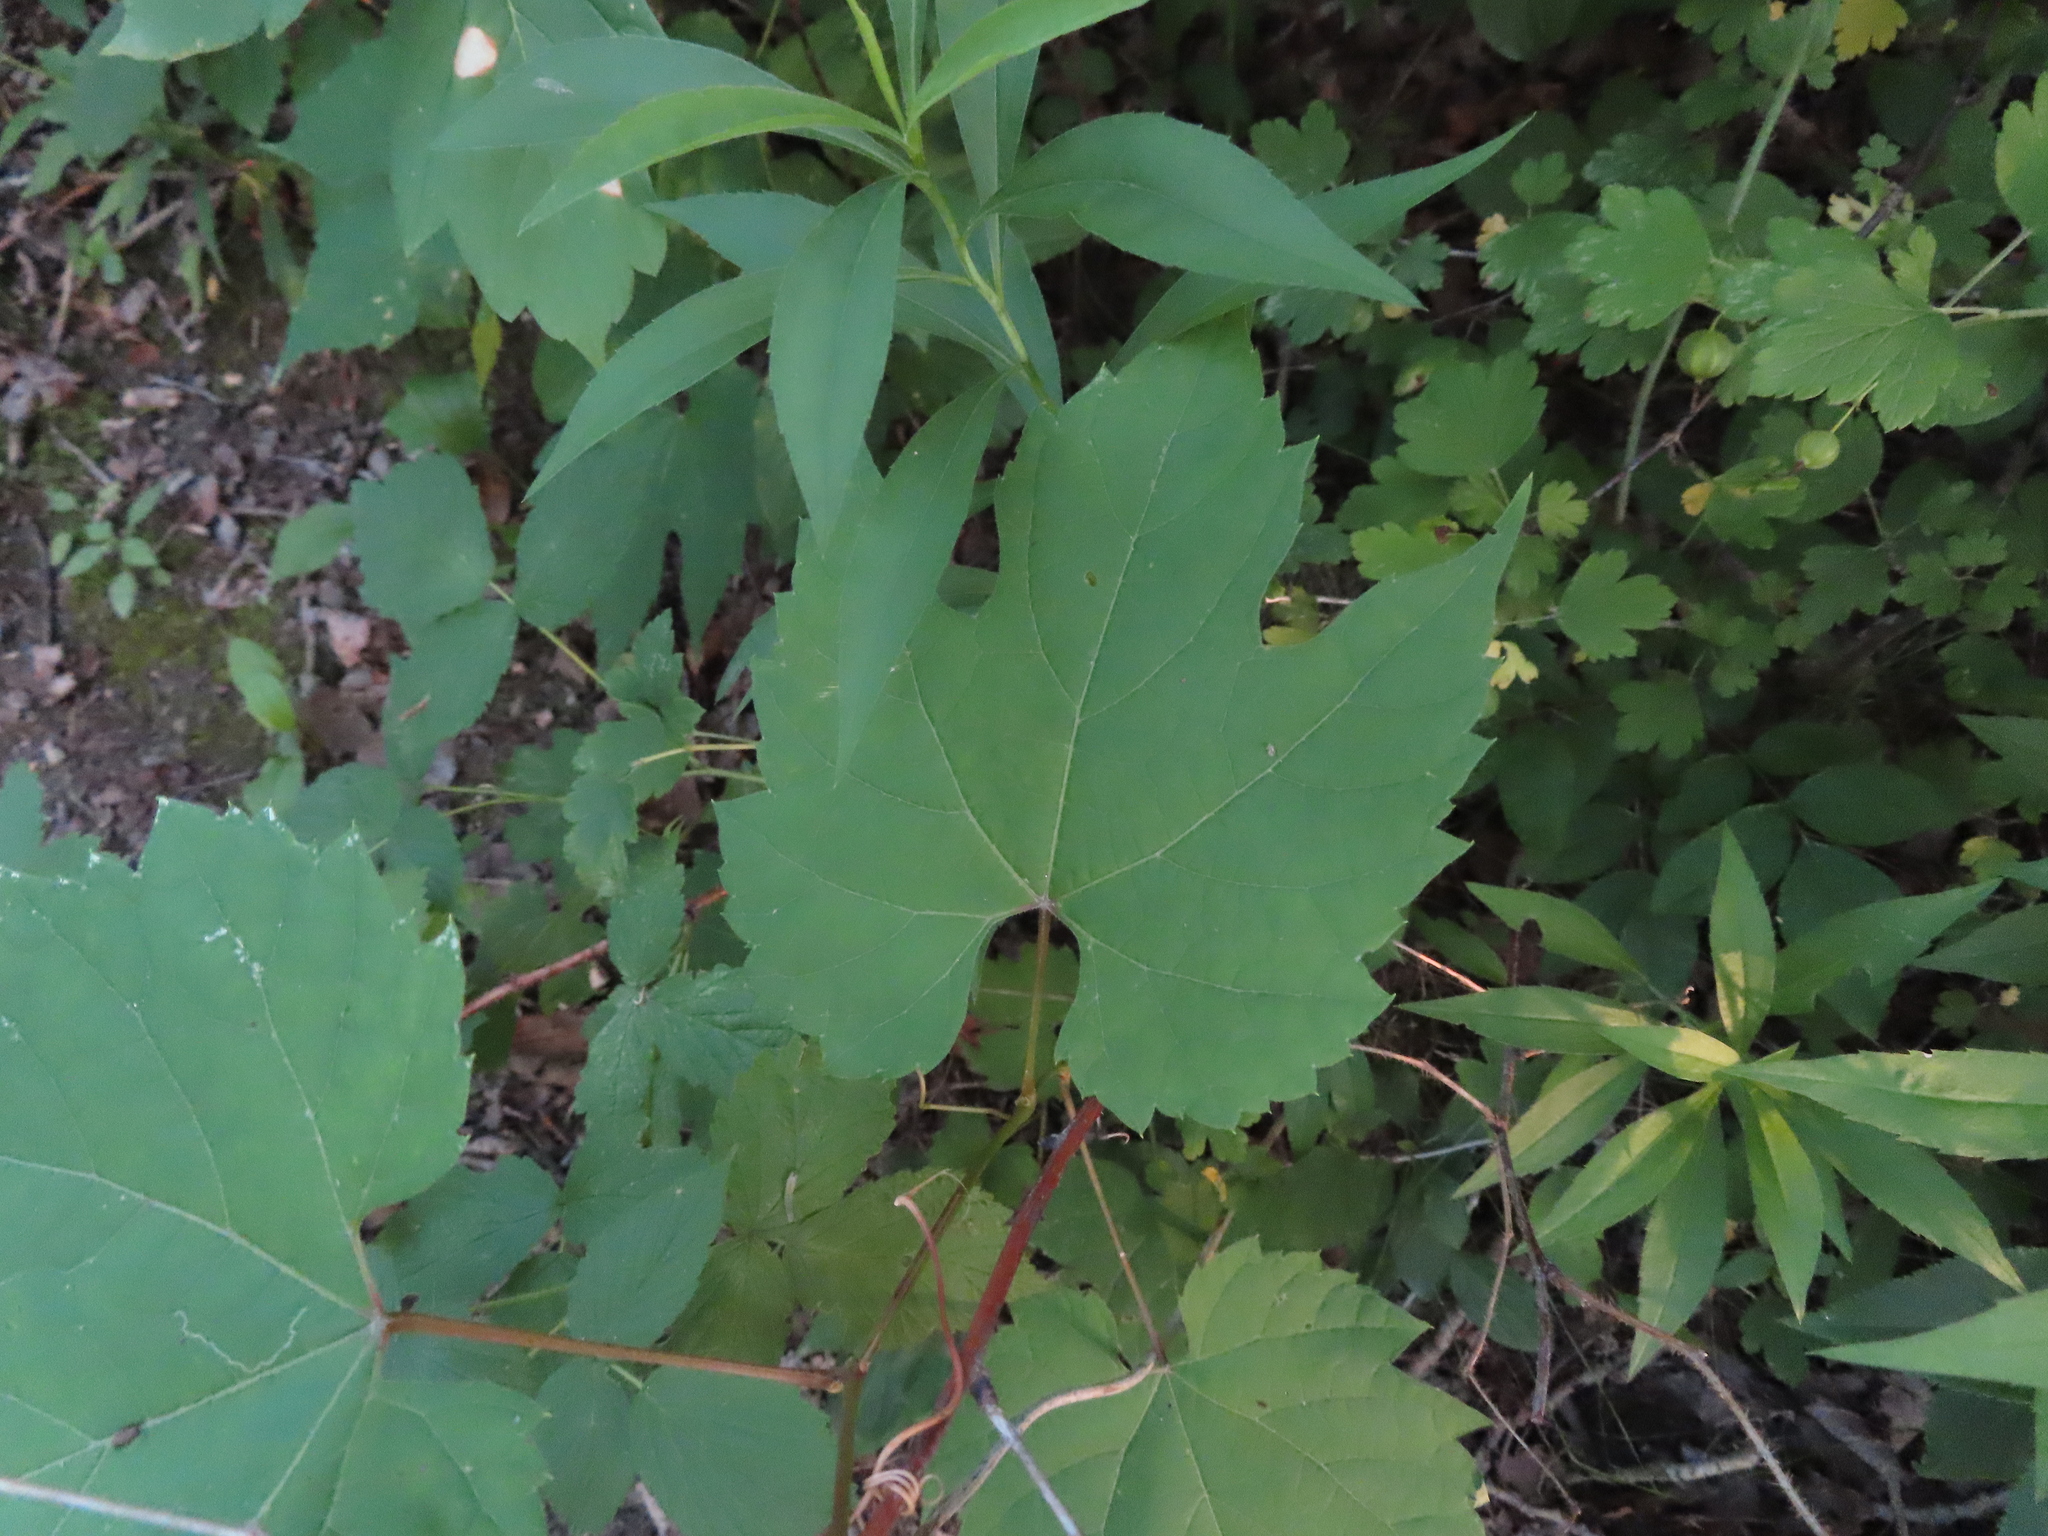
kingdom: Plantae
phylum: Tracheophyta
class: Magnoliopsida
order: Vitales
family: Vitaceae
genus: Vitis
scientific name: Vitis riparia
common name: Frost grape
